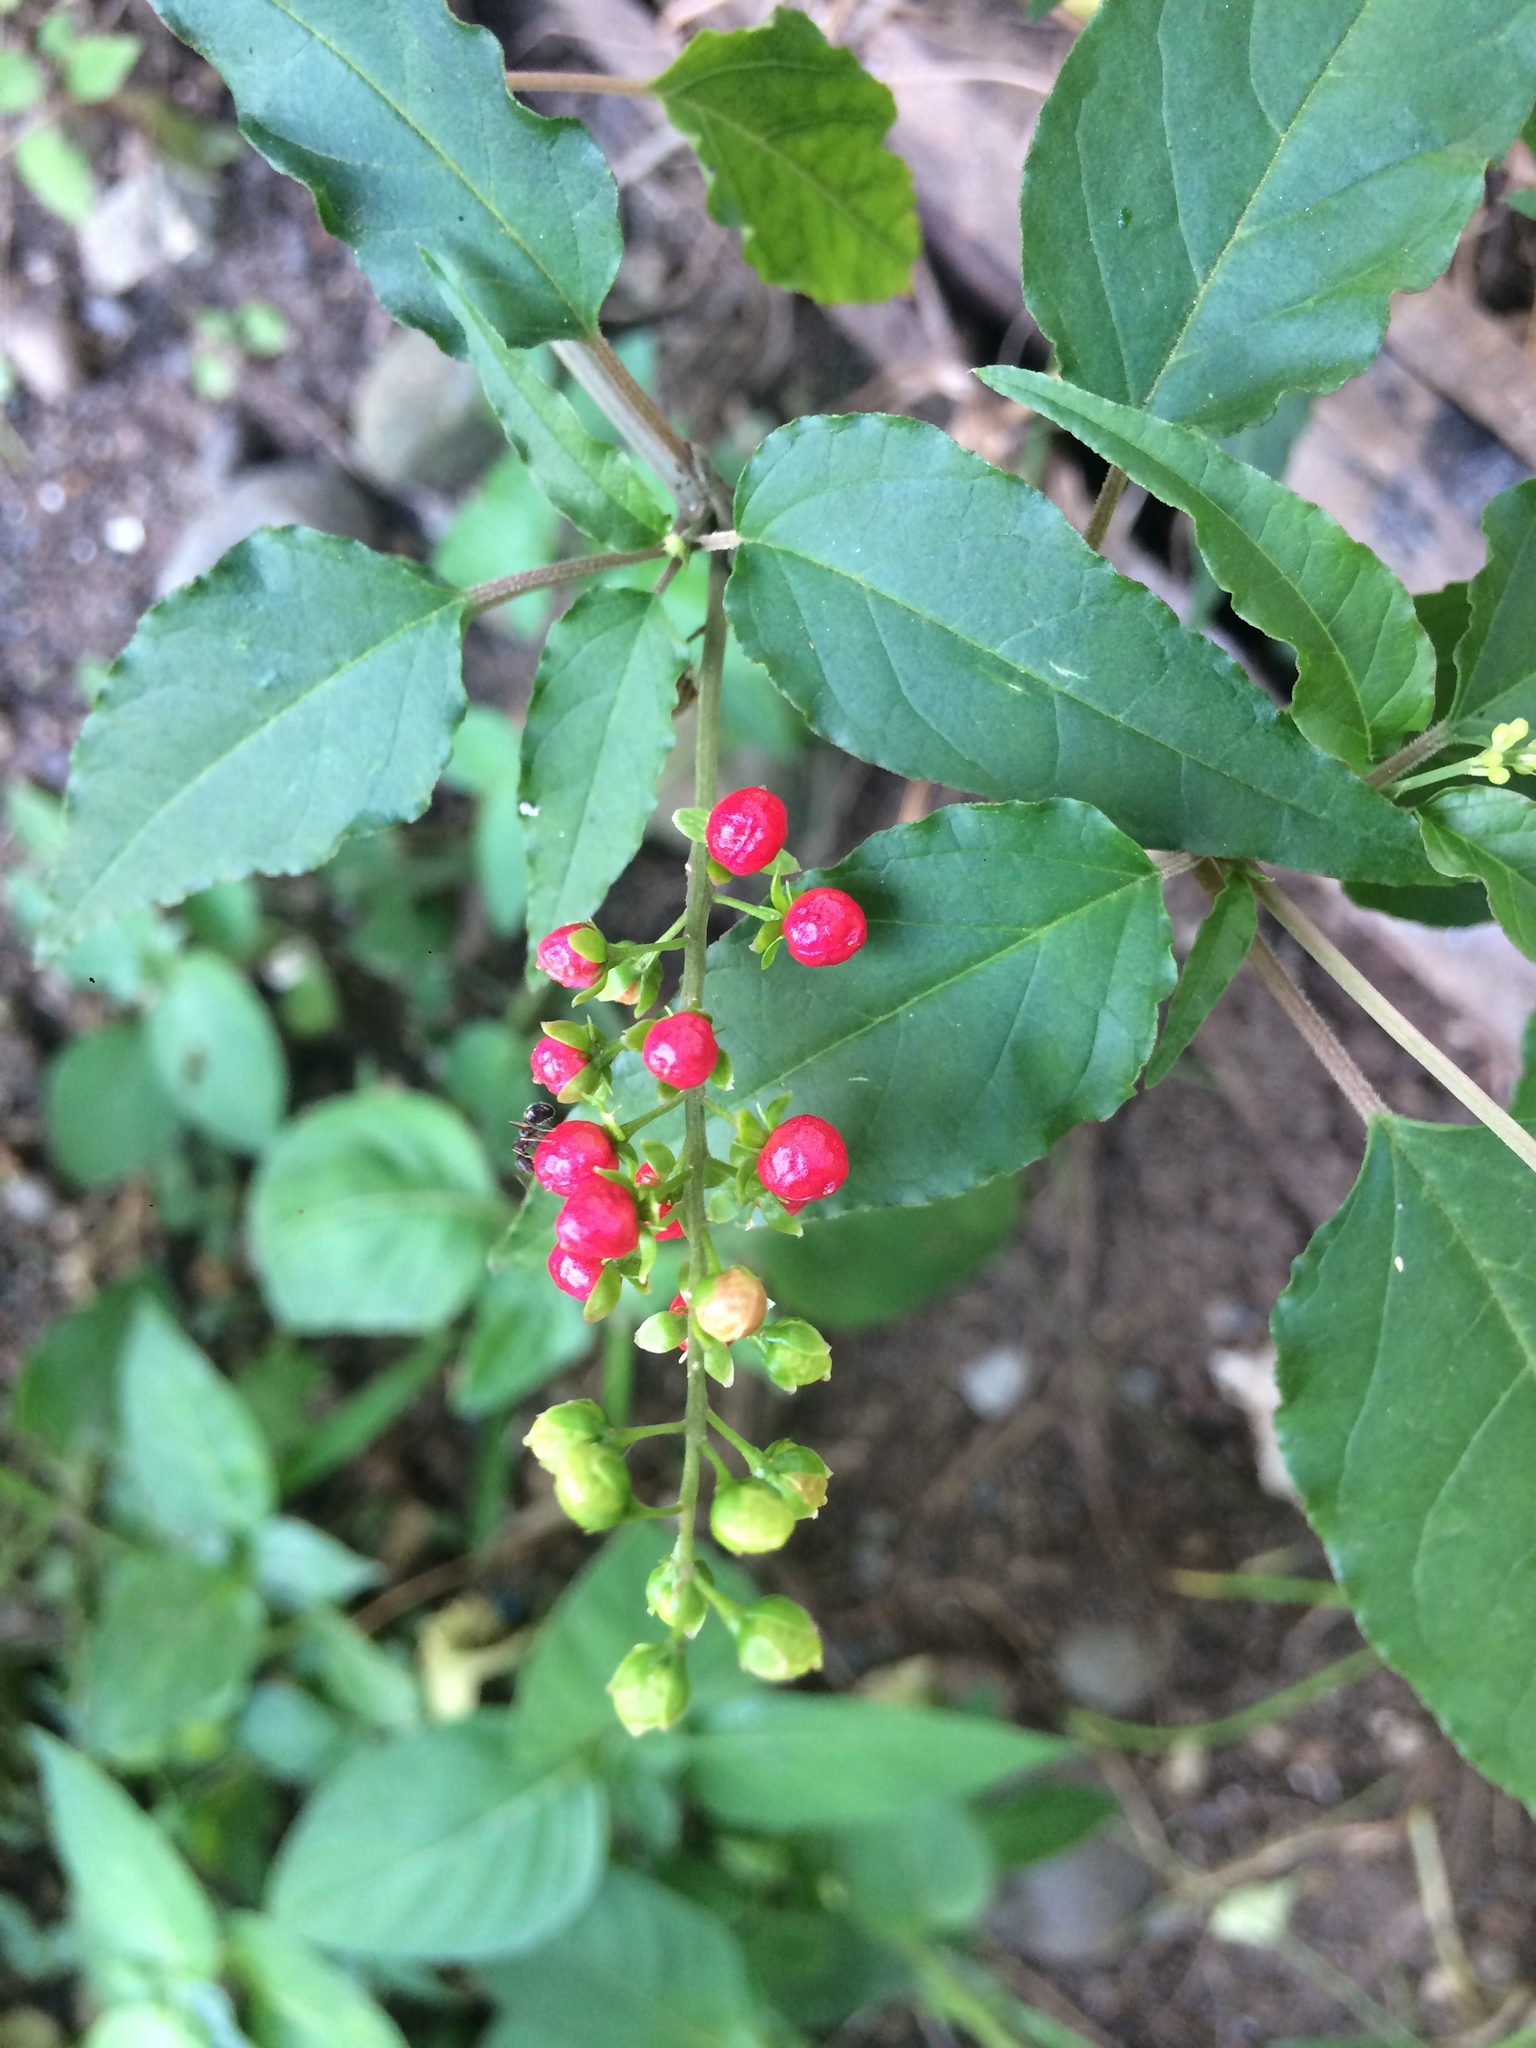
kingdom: Plantae
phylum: Tracheophyta
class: Magnoliopsida
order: Caryophyllales
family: Phytolaccaceae
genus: Rivina
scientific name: Rivina humilis
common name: Rougeplant
